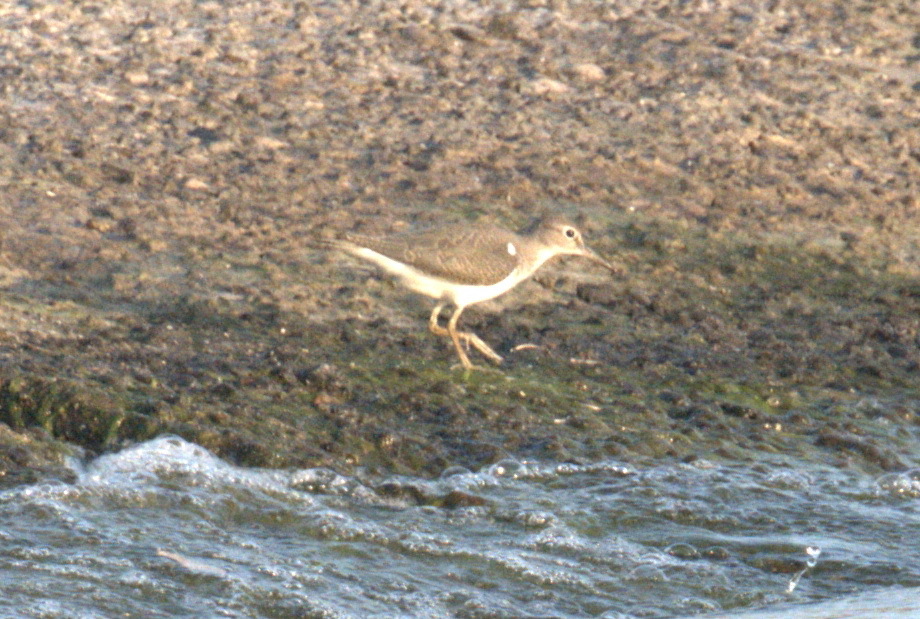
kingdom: Animalia
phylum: Chordata
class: Aves
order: Charadriiformes
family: Scolopacidae
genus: Actitis
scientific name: Actitis hypoleucos
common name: Common sandpiper
